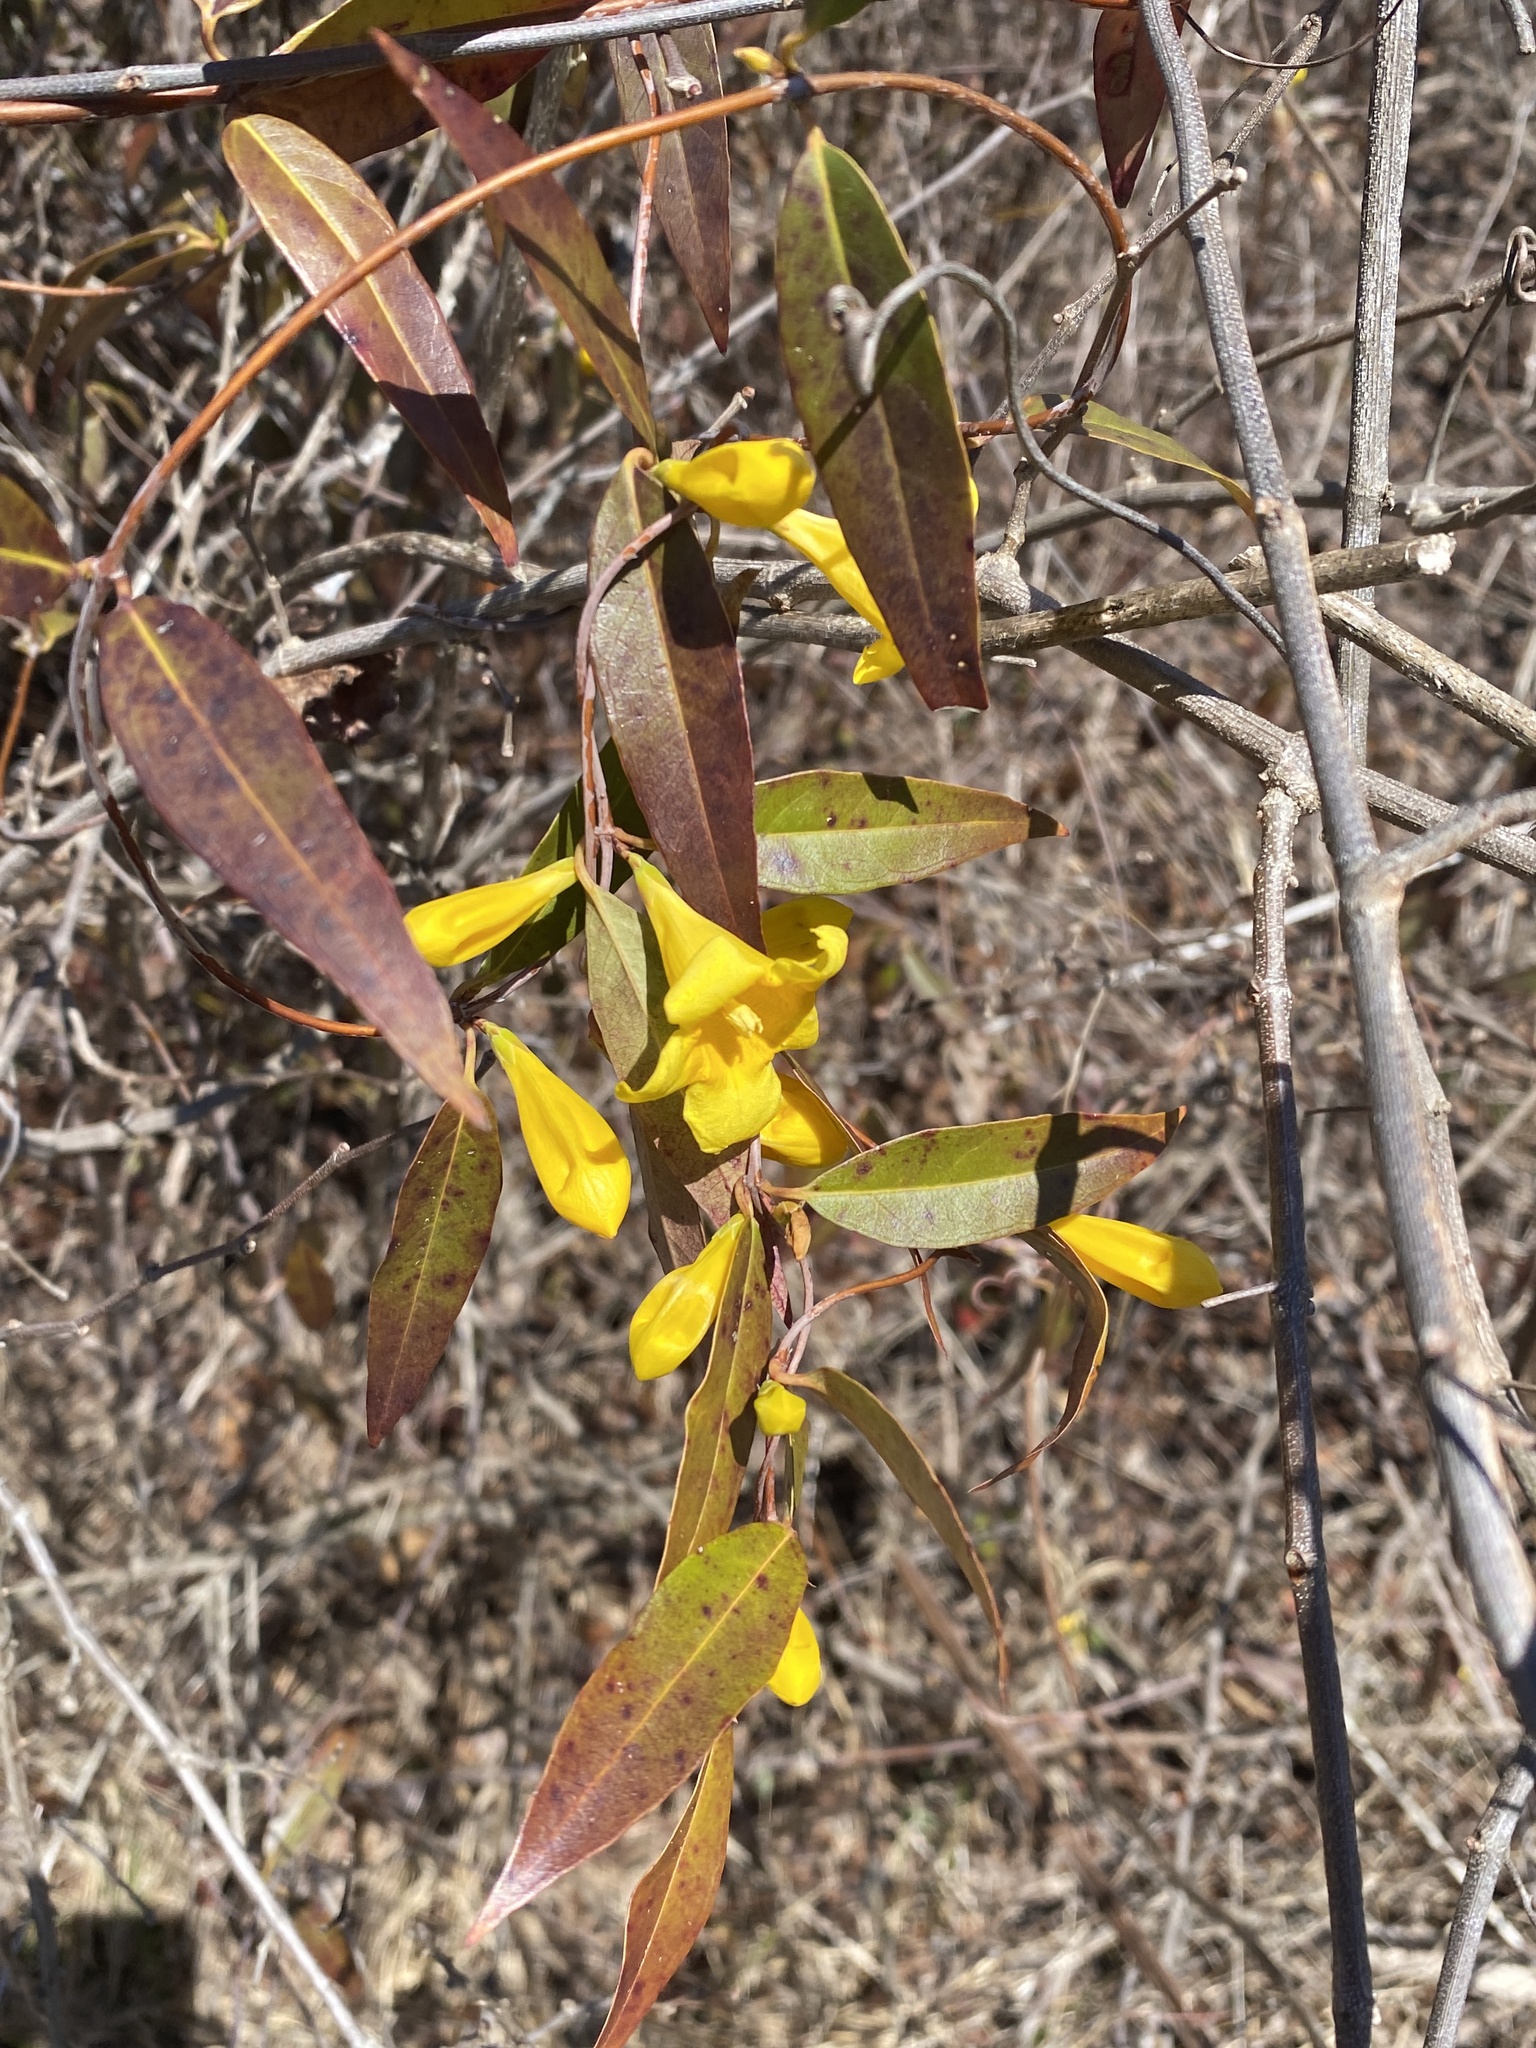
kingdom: Plantae
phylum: Tracheophyta
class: Magnoliopsida
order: Gentianales
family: Gelsemiaceae
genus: Gelsemium
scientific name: Gelsemium sempervirens
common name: Carolina-jasmine
